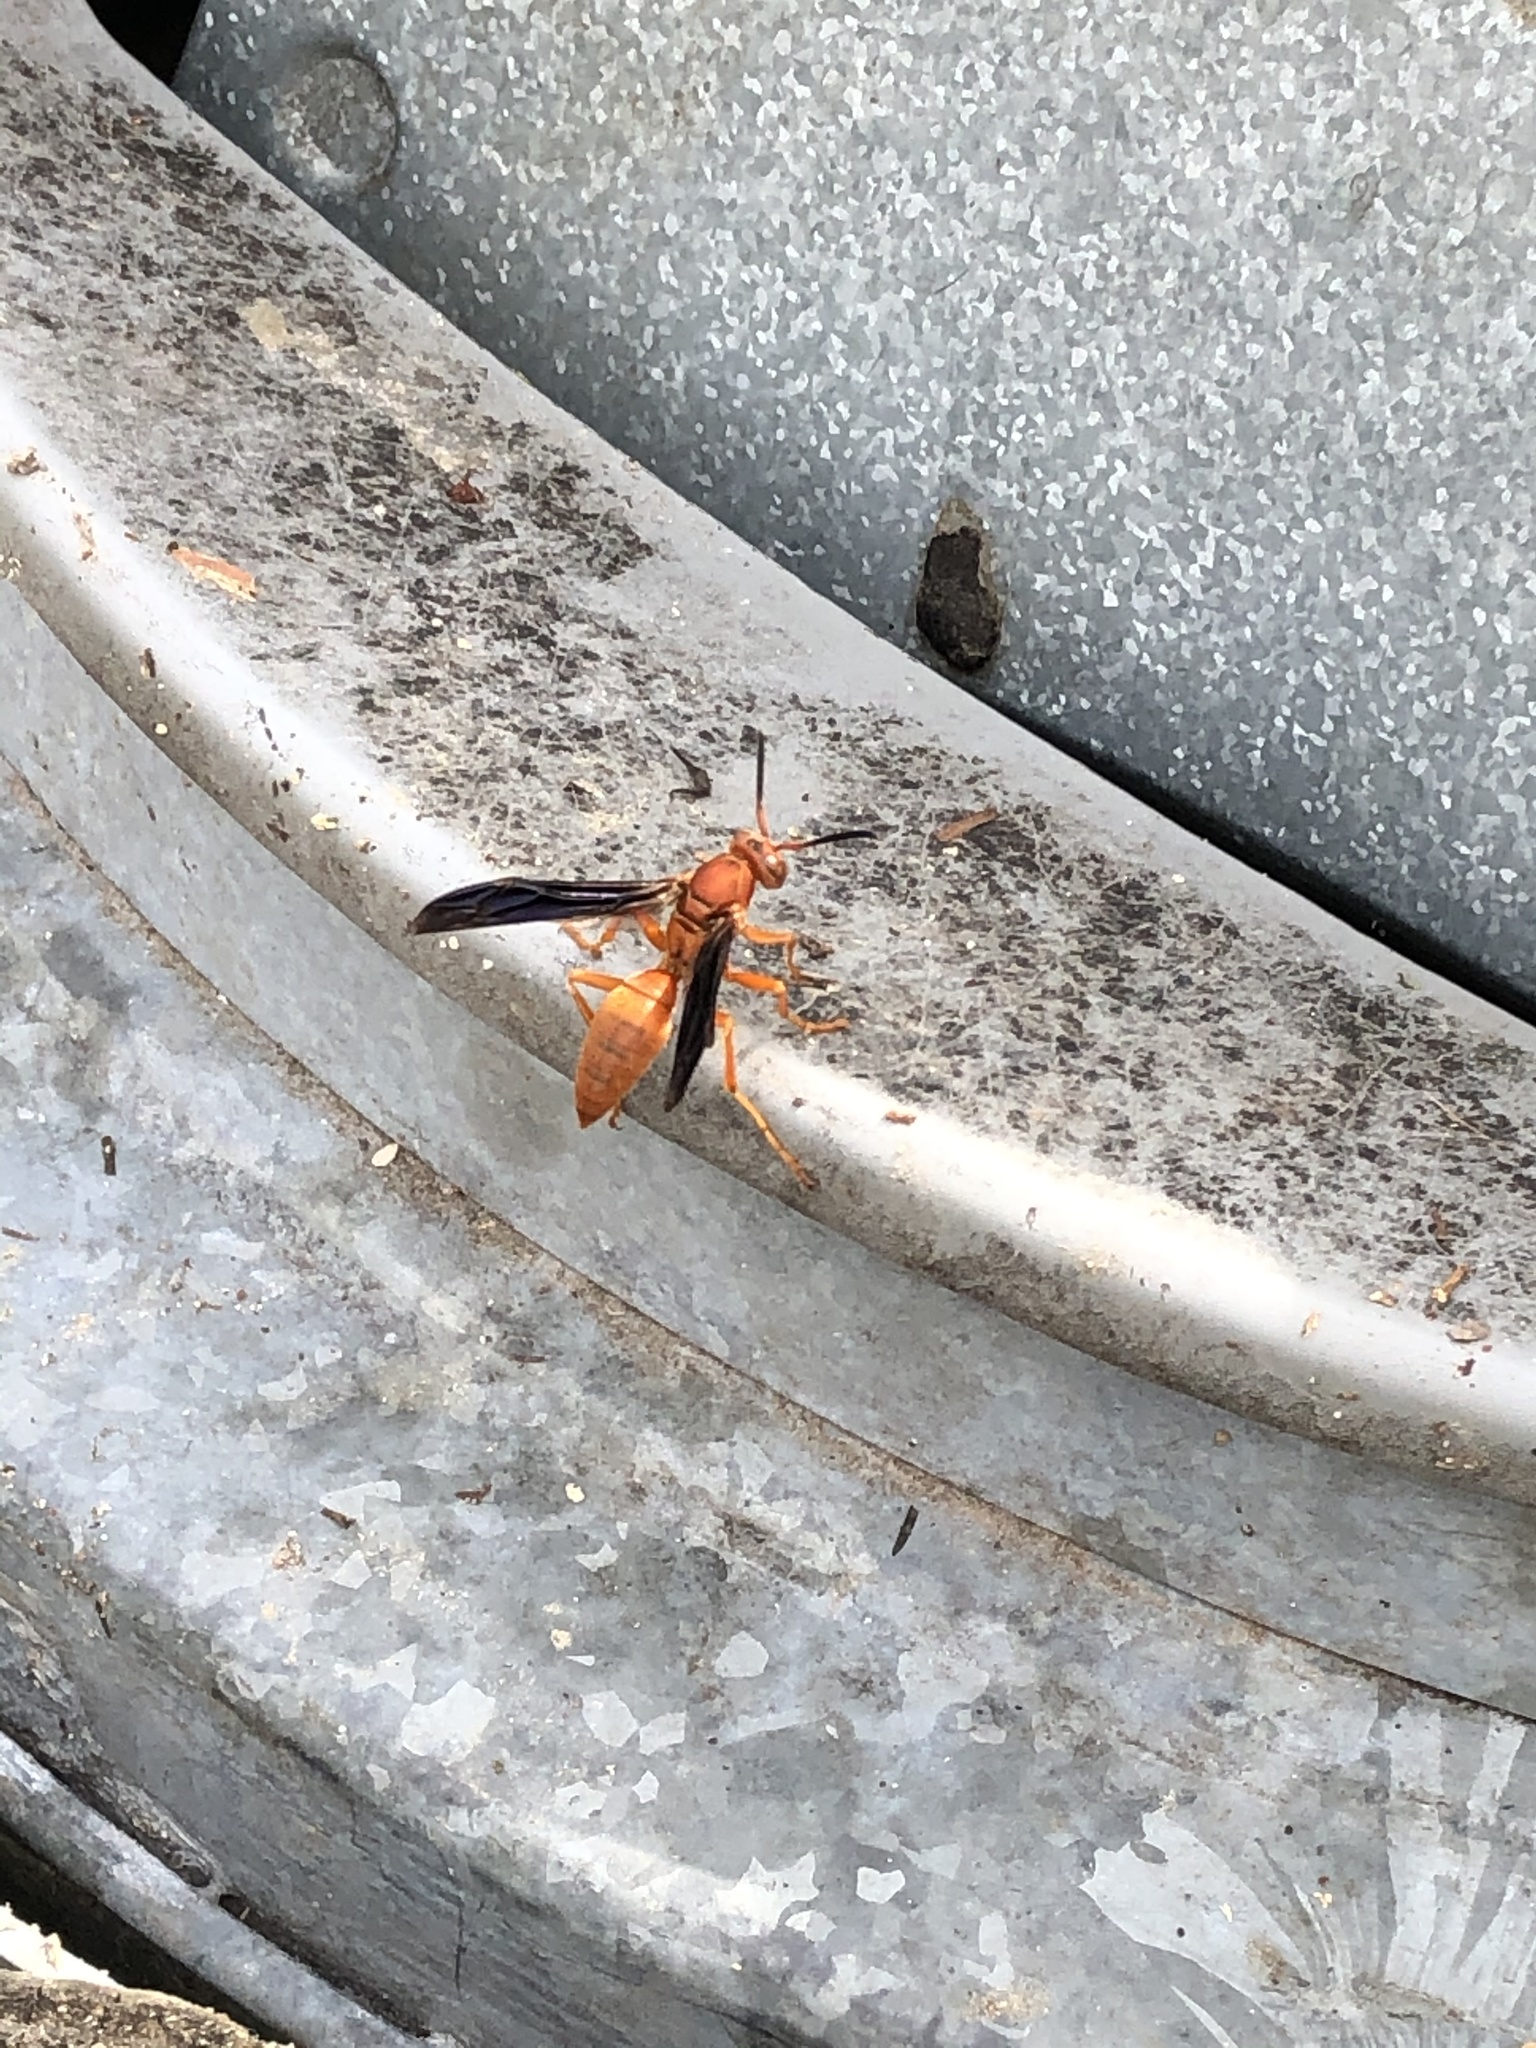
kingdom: Animalia
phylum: Arthropoda
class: Insecta
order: Hymenoptera
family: Eumenidae
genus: Polistes
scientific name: Polistes carolina
